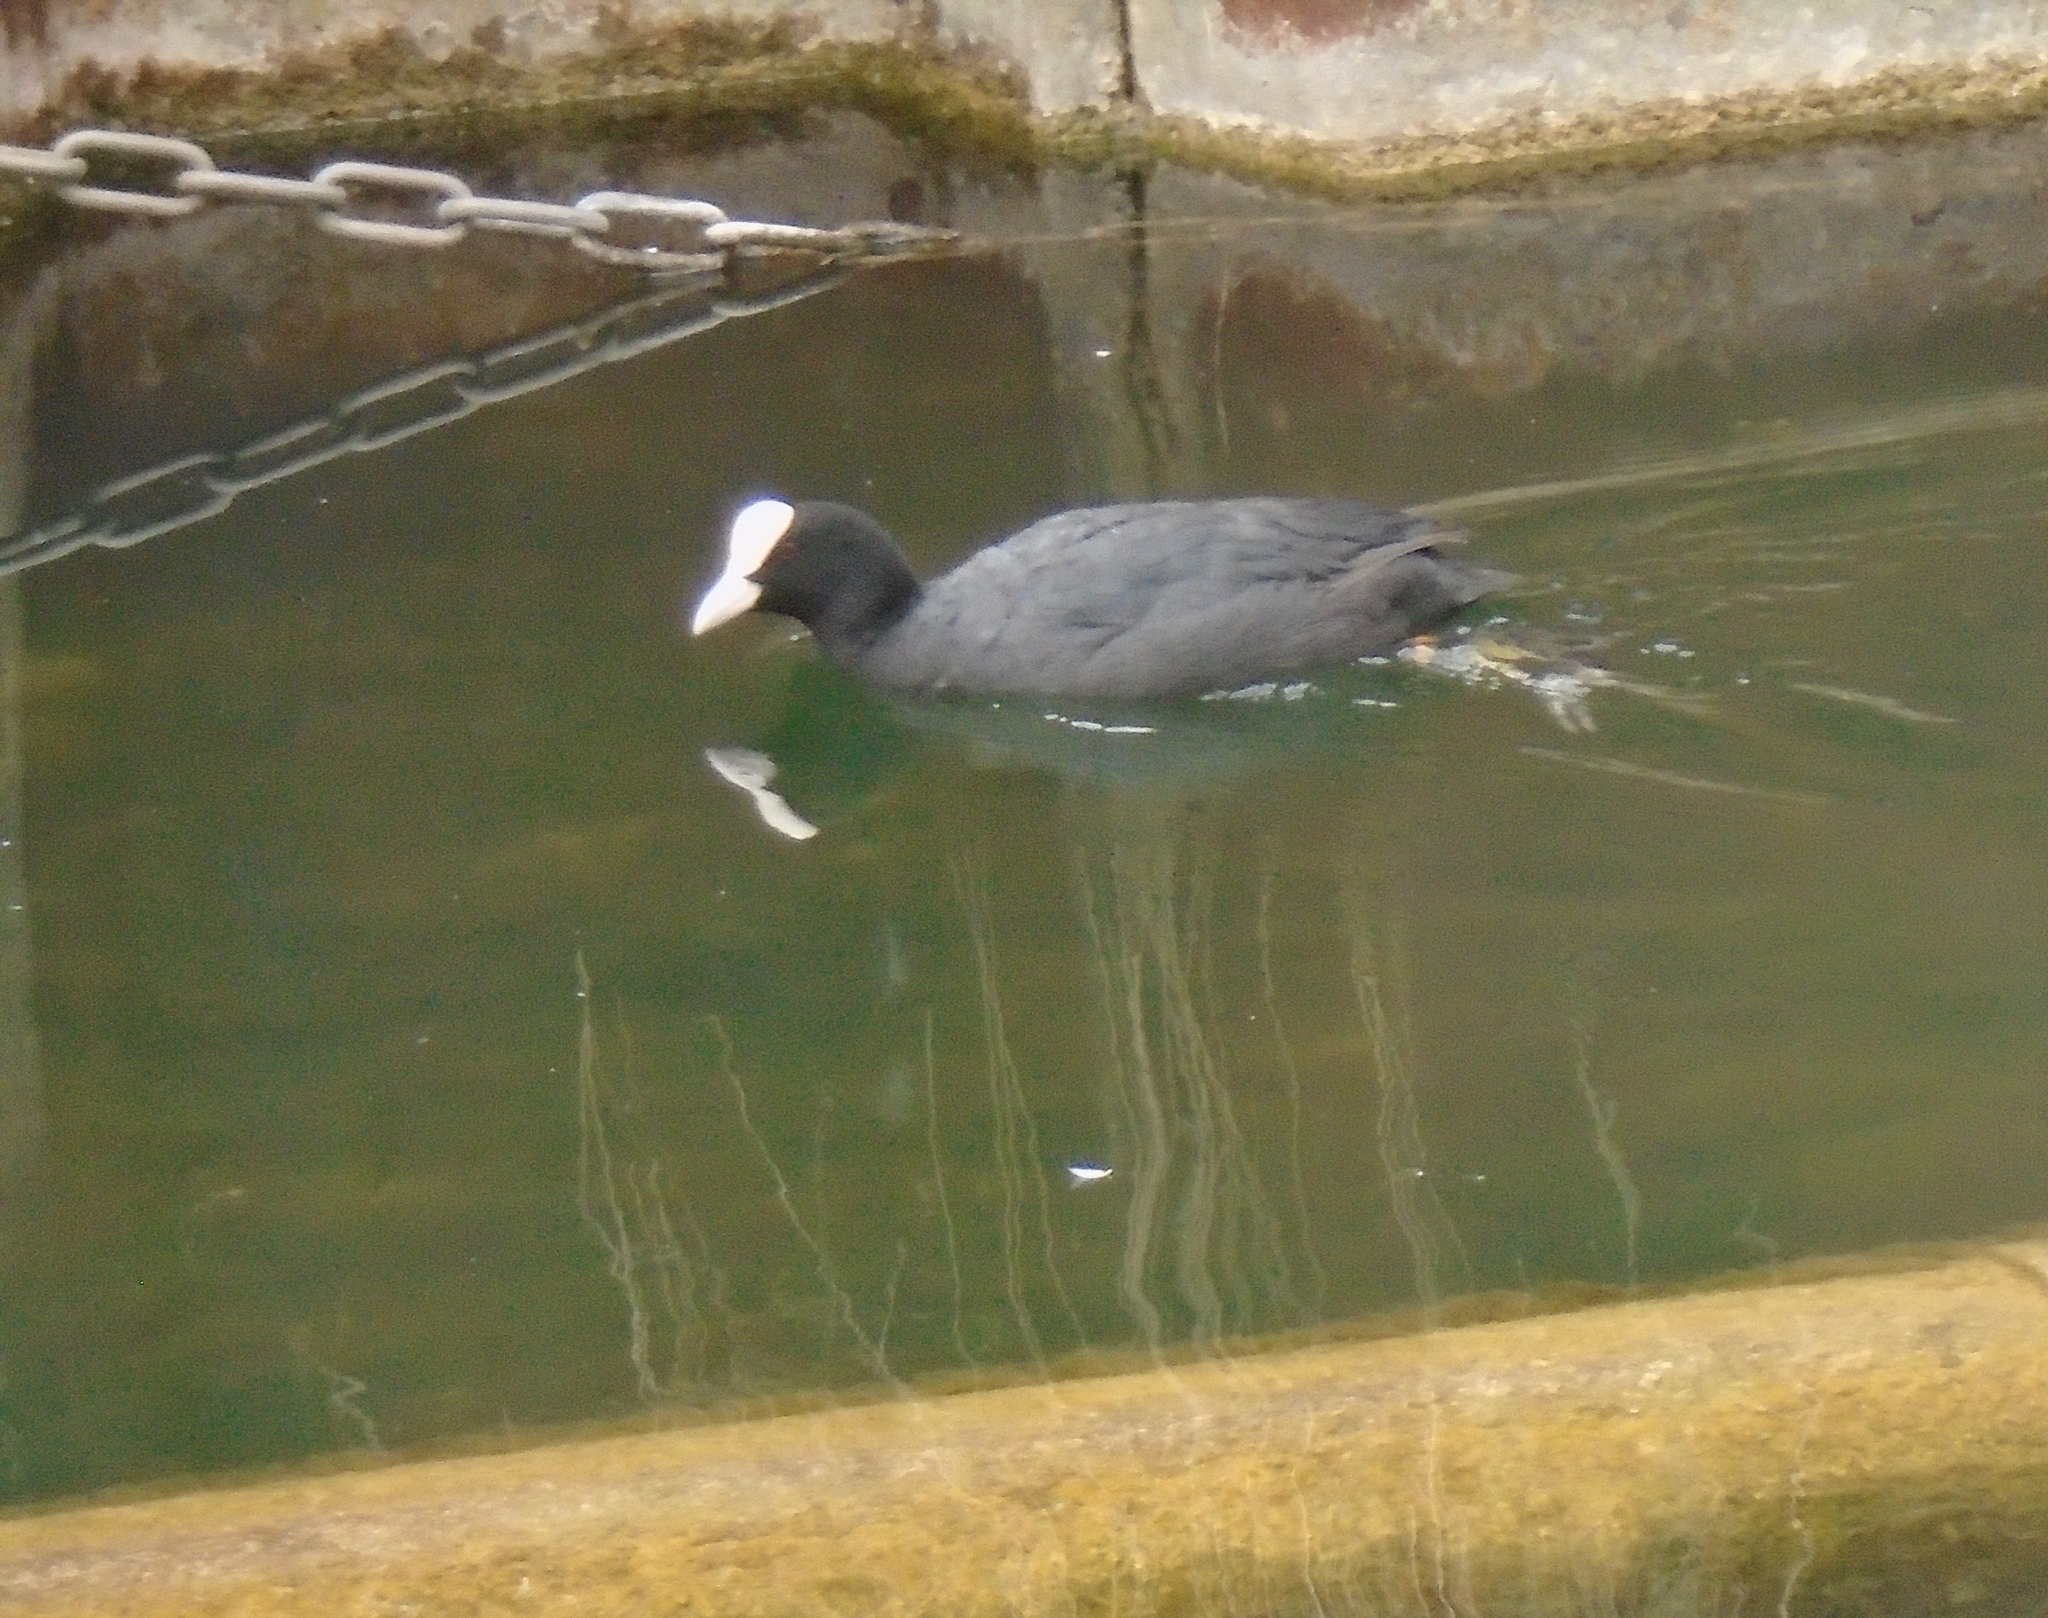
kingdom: Animalia
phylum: Chordata
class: Aves
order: Gruiformes
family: Rallidae
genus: Fulica
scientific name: Fulica atra
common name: Eurasian coot
